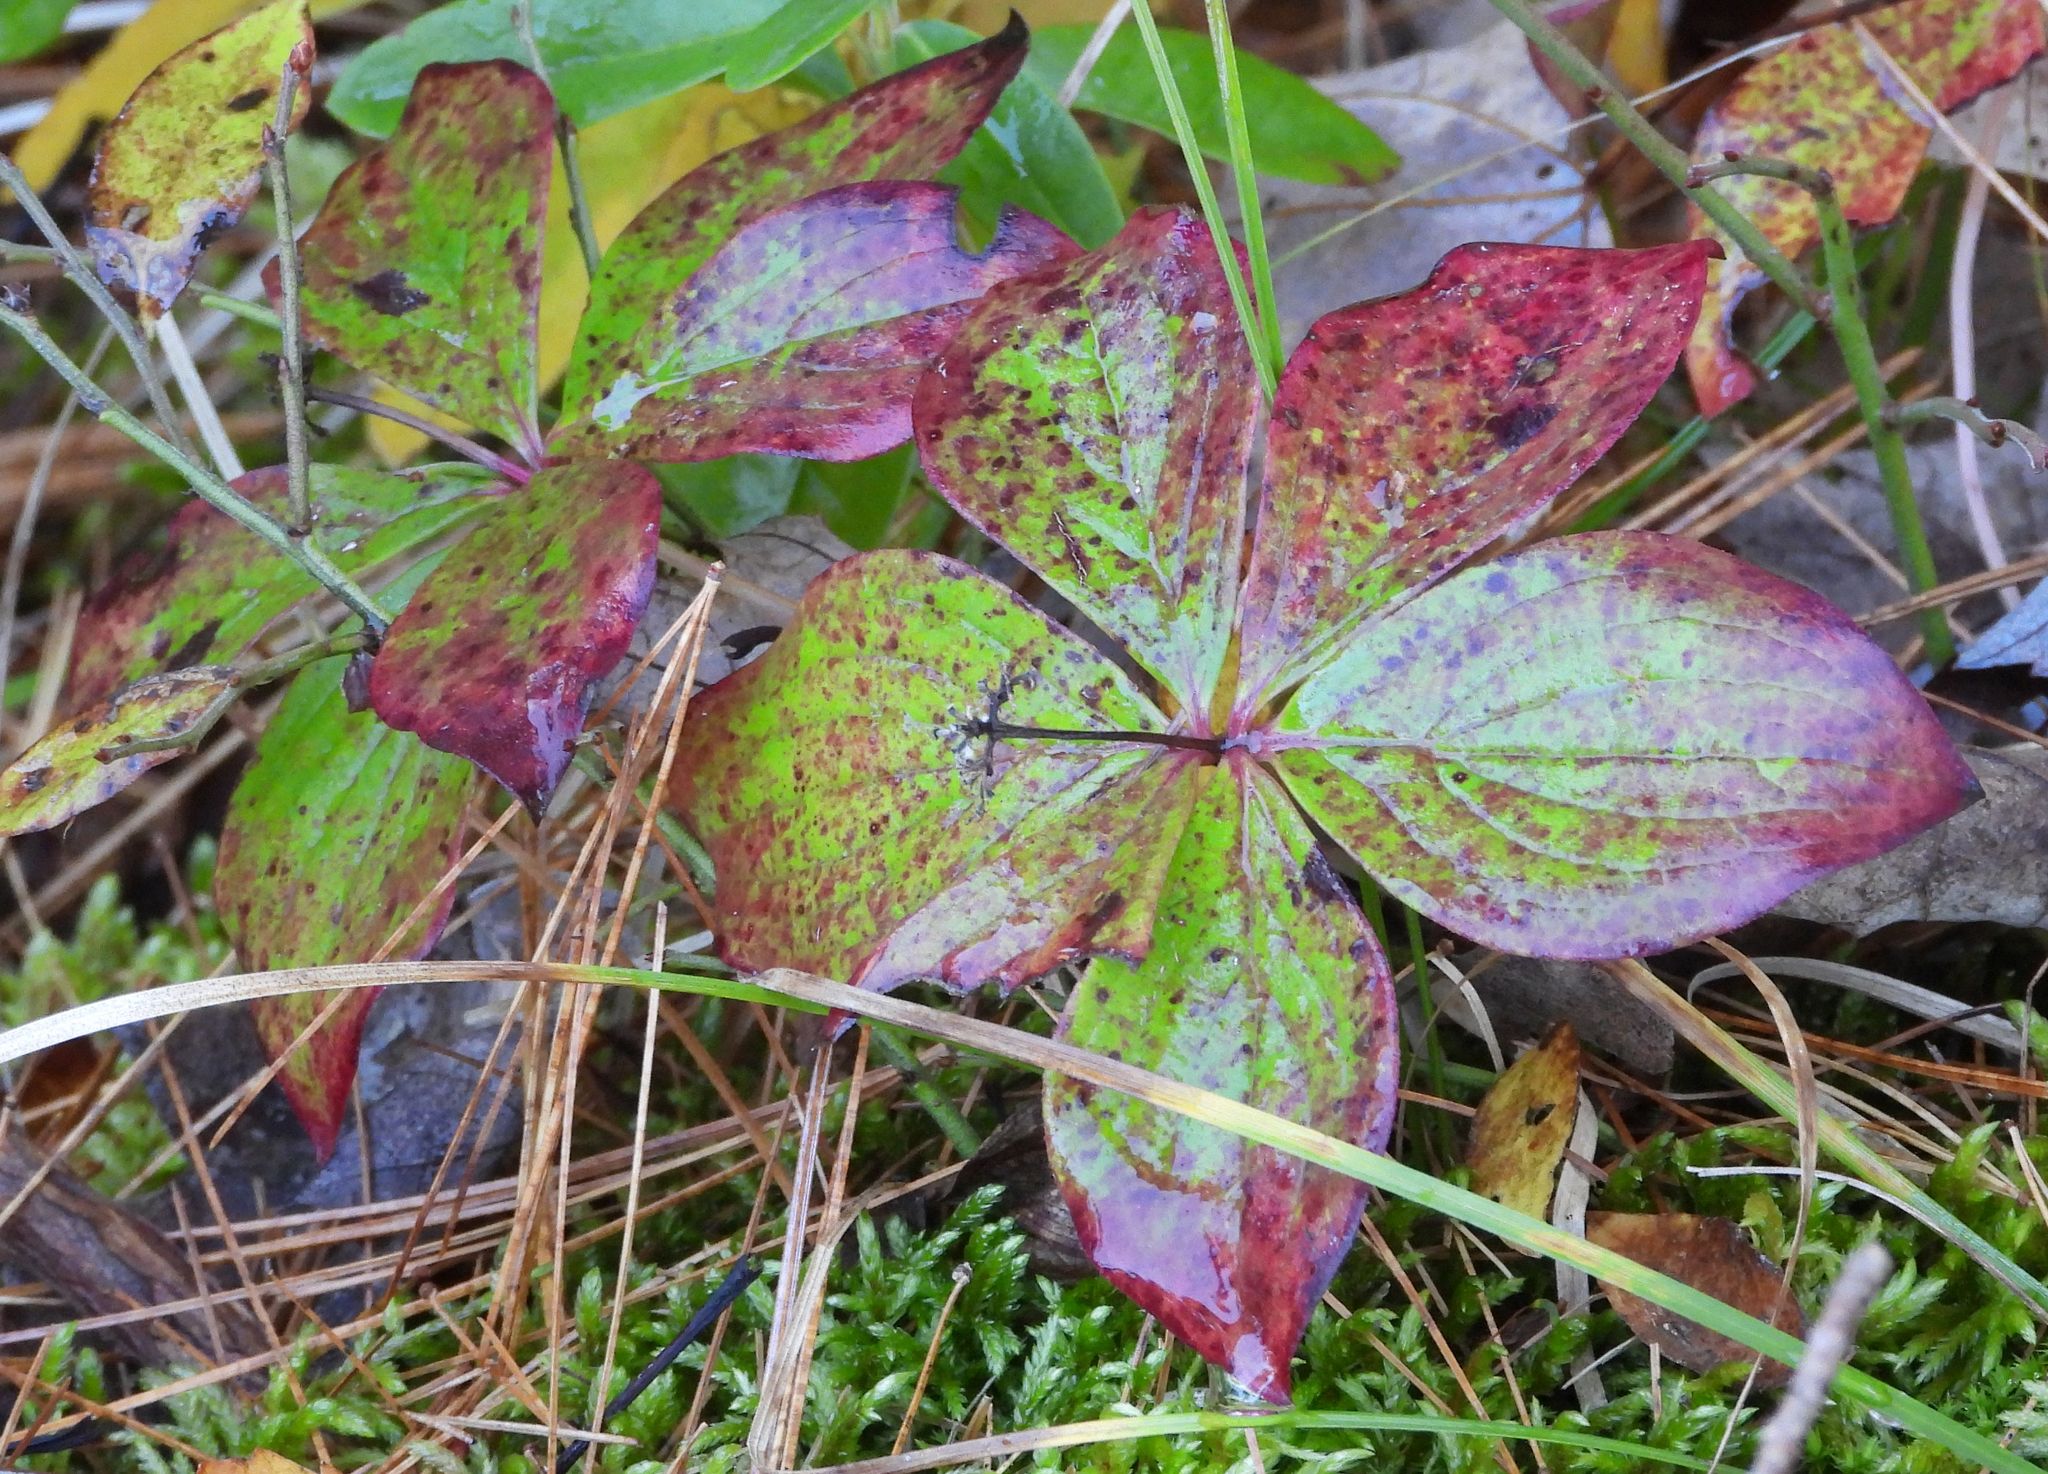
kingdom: Plantae
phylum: Tracheophyta
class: Magnoliopsida
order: Cornales
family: Cornaceae
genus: Cornus
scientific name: Cornus canadensis
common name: Creeping dogwood
